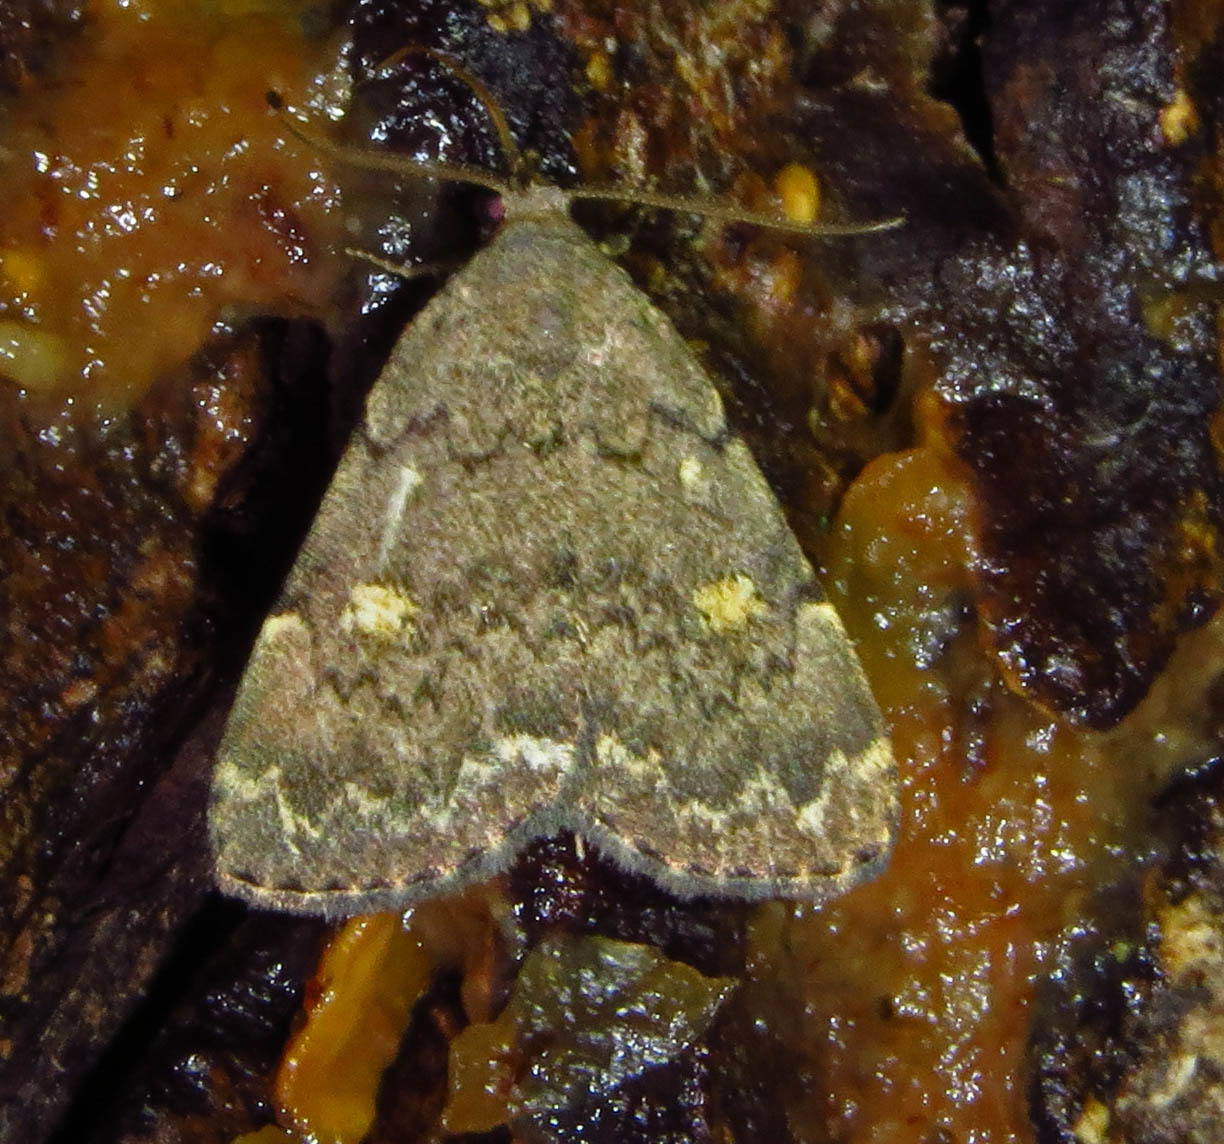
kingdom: Animalia
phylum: Arthropoda
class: Insecta
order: Lepidoptera
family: Erebidae
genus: Idia
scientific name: Idia aemula
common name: Common idia moth
